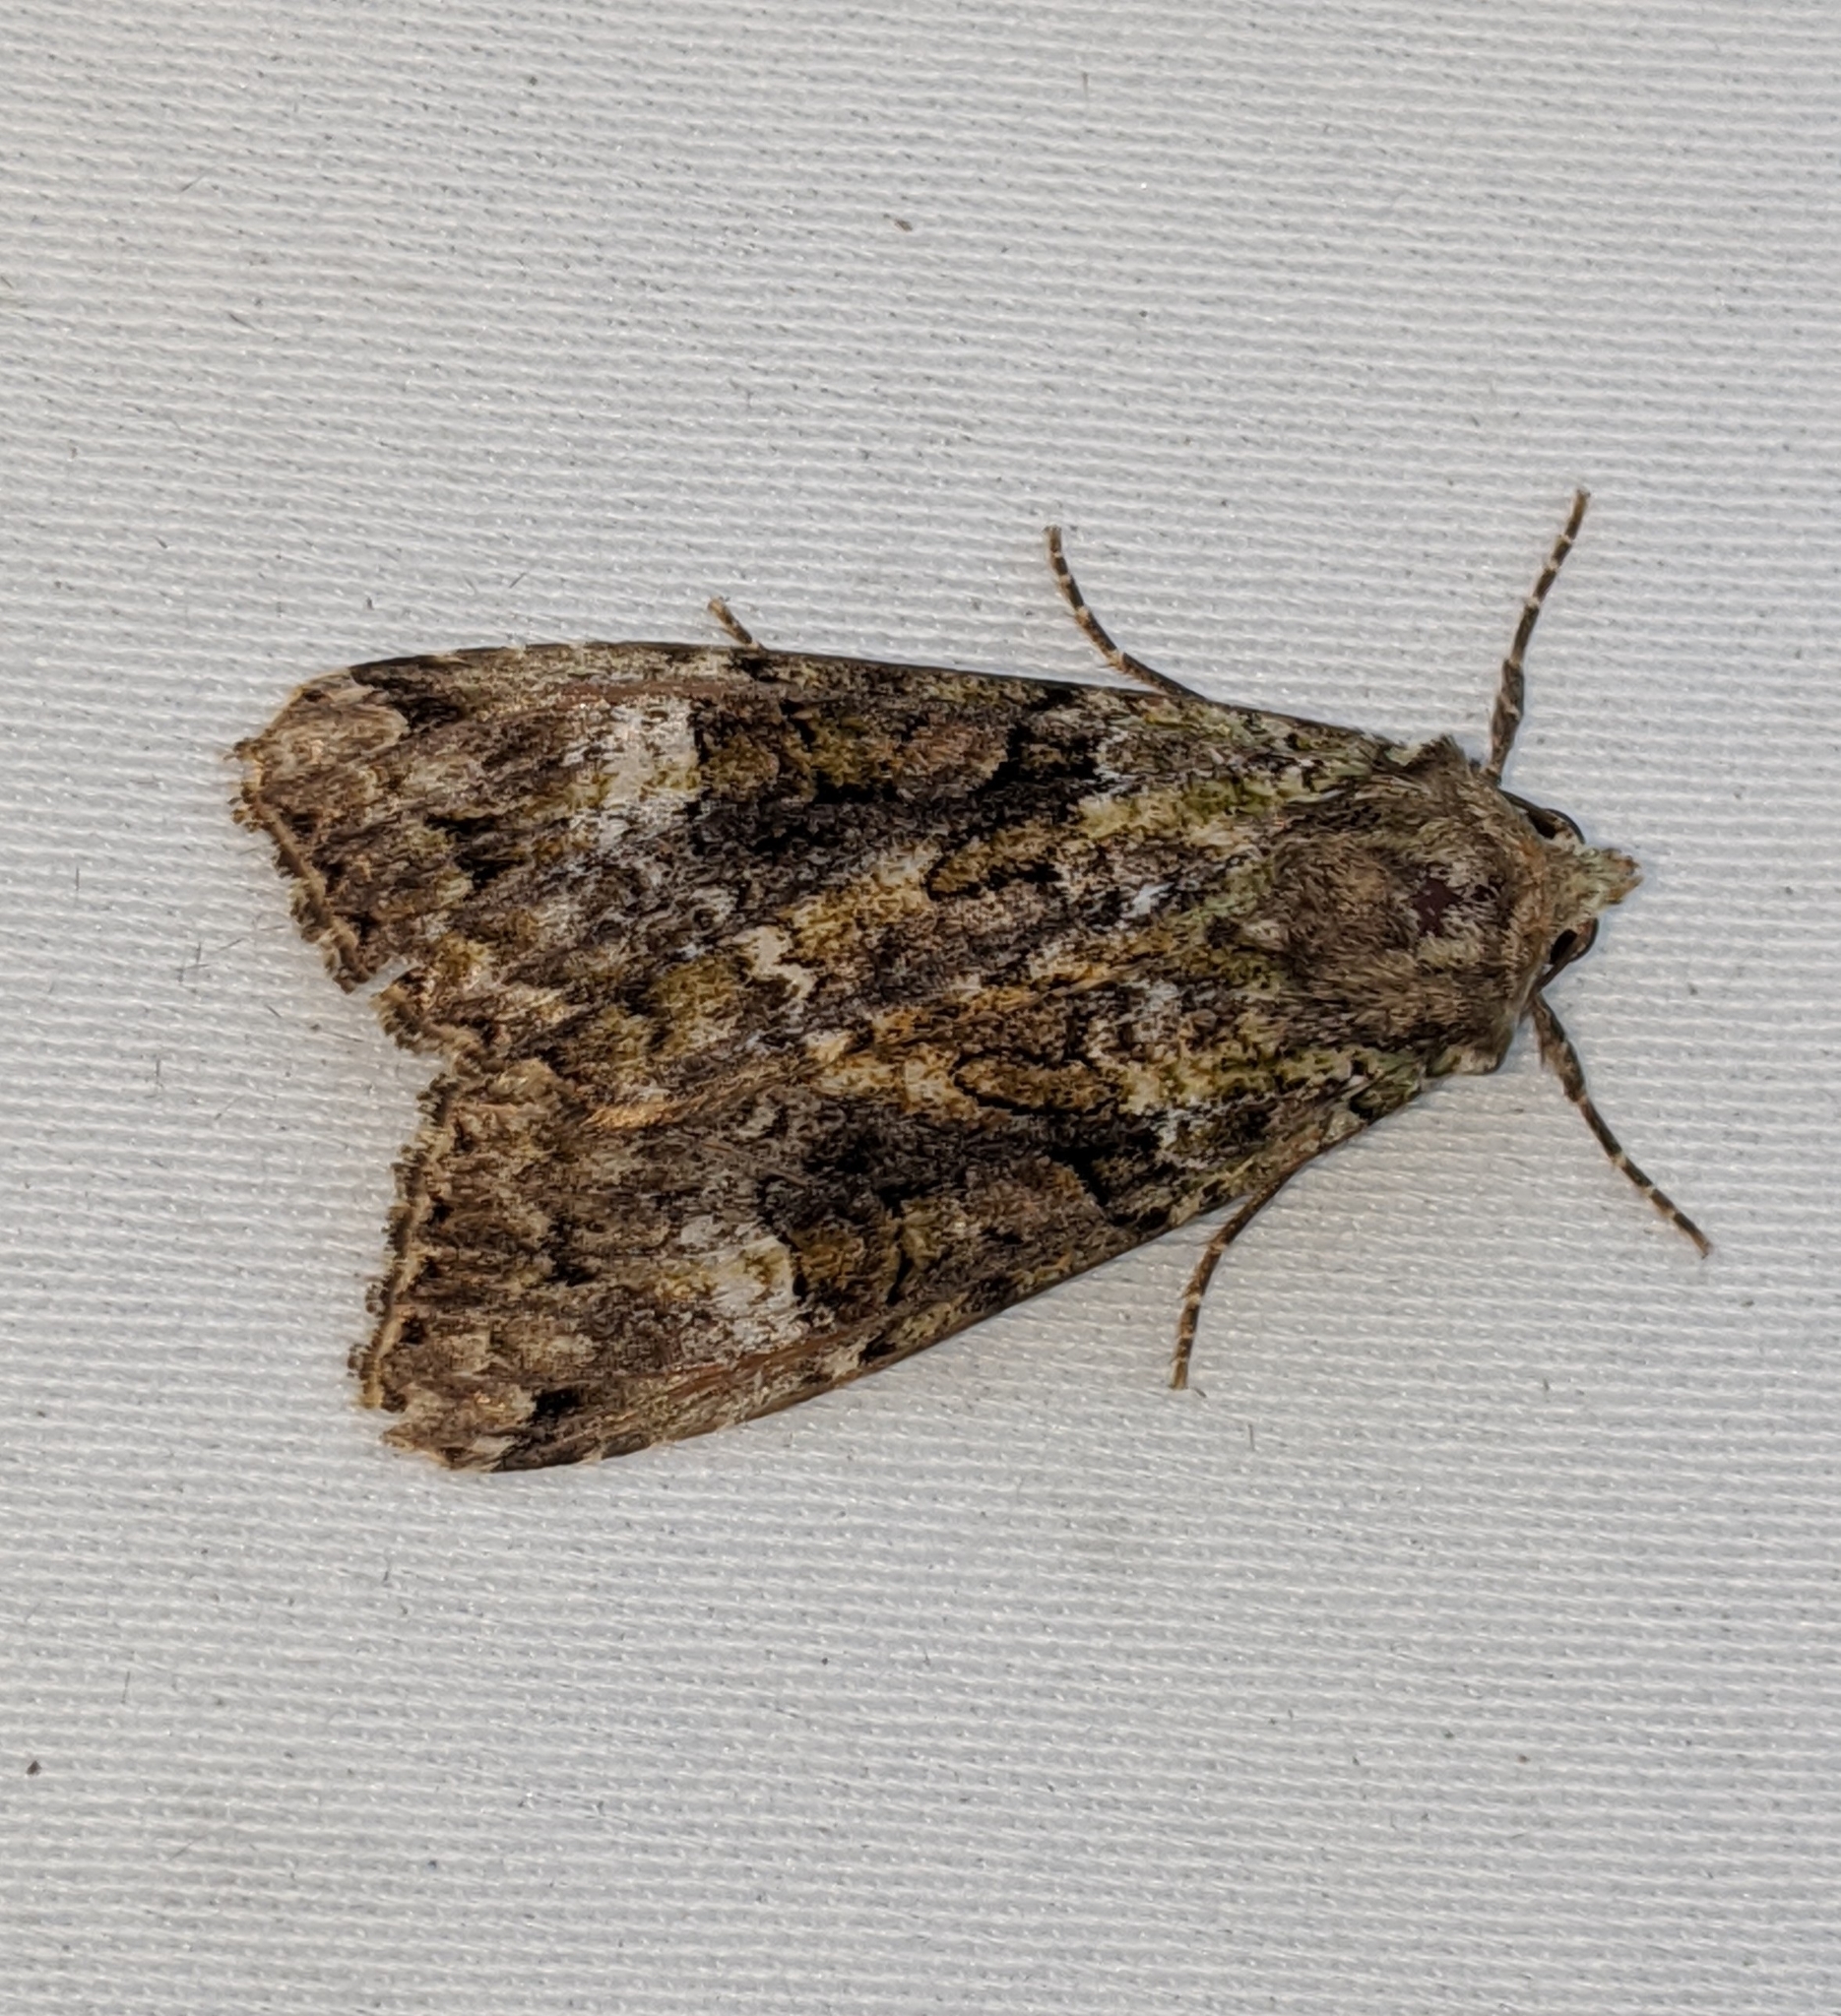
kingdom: Animalia
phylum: Arthropoda
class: Insecta
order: Lepidoptera
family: Noctuidae
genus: Anaplectoides
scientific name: Anaplectoides prasina
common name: Green arches
